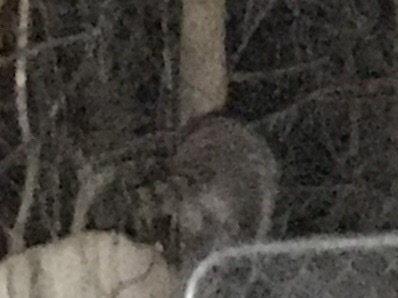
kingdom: Animalia
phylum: Chordata
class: Mammalia
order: Carnivora
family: Procyonidae
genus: Procyon
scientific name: Procyon lotor
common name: Raccoon
